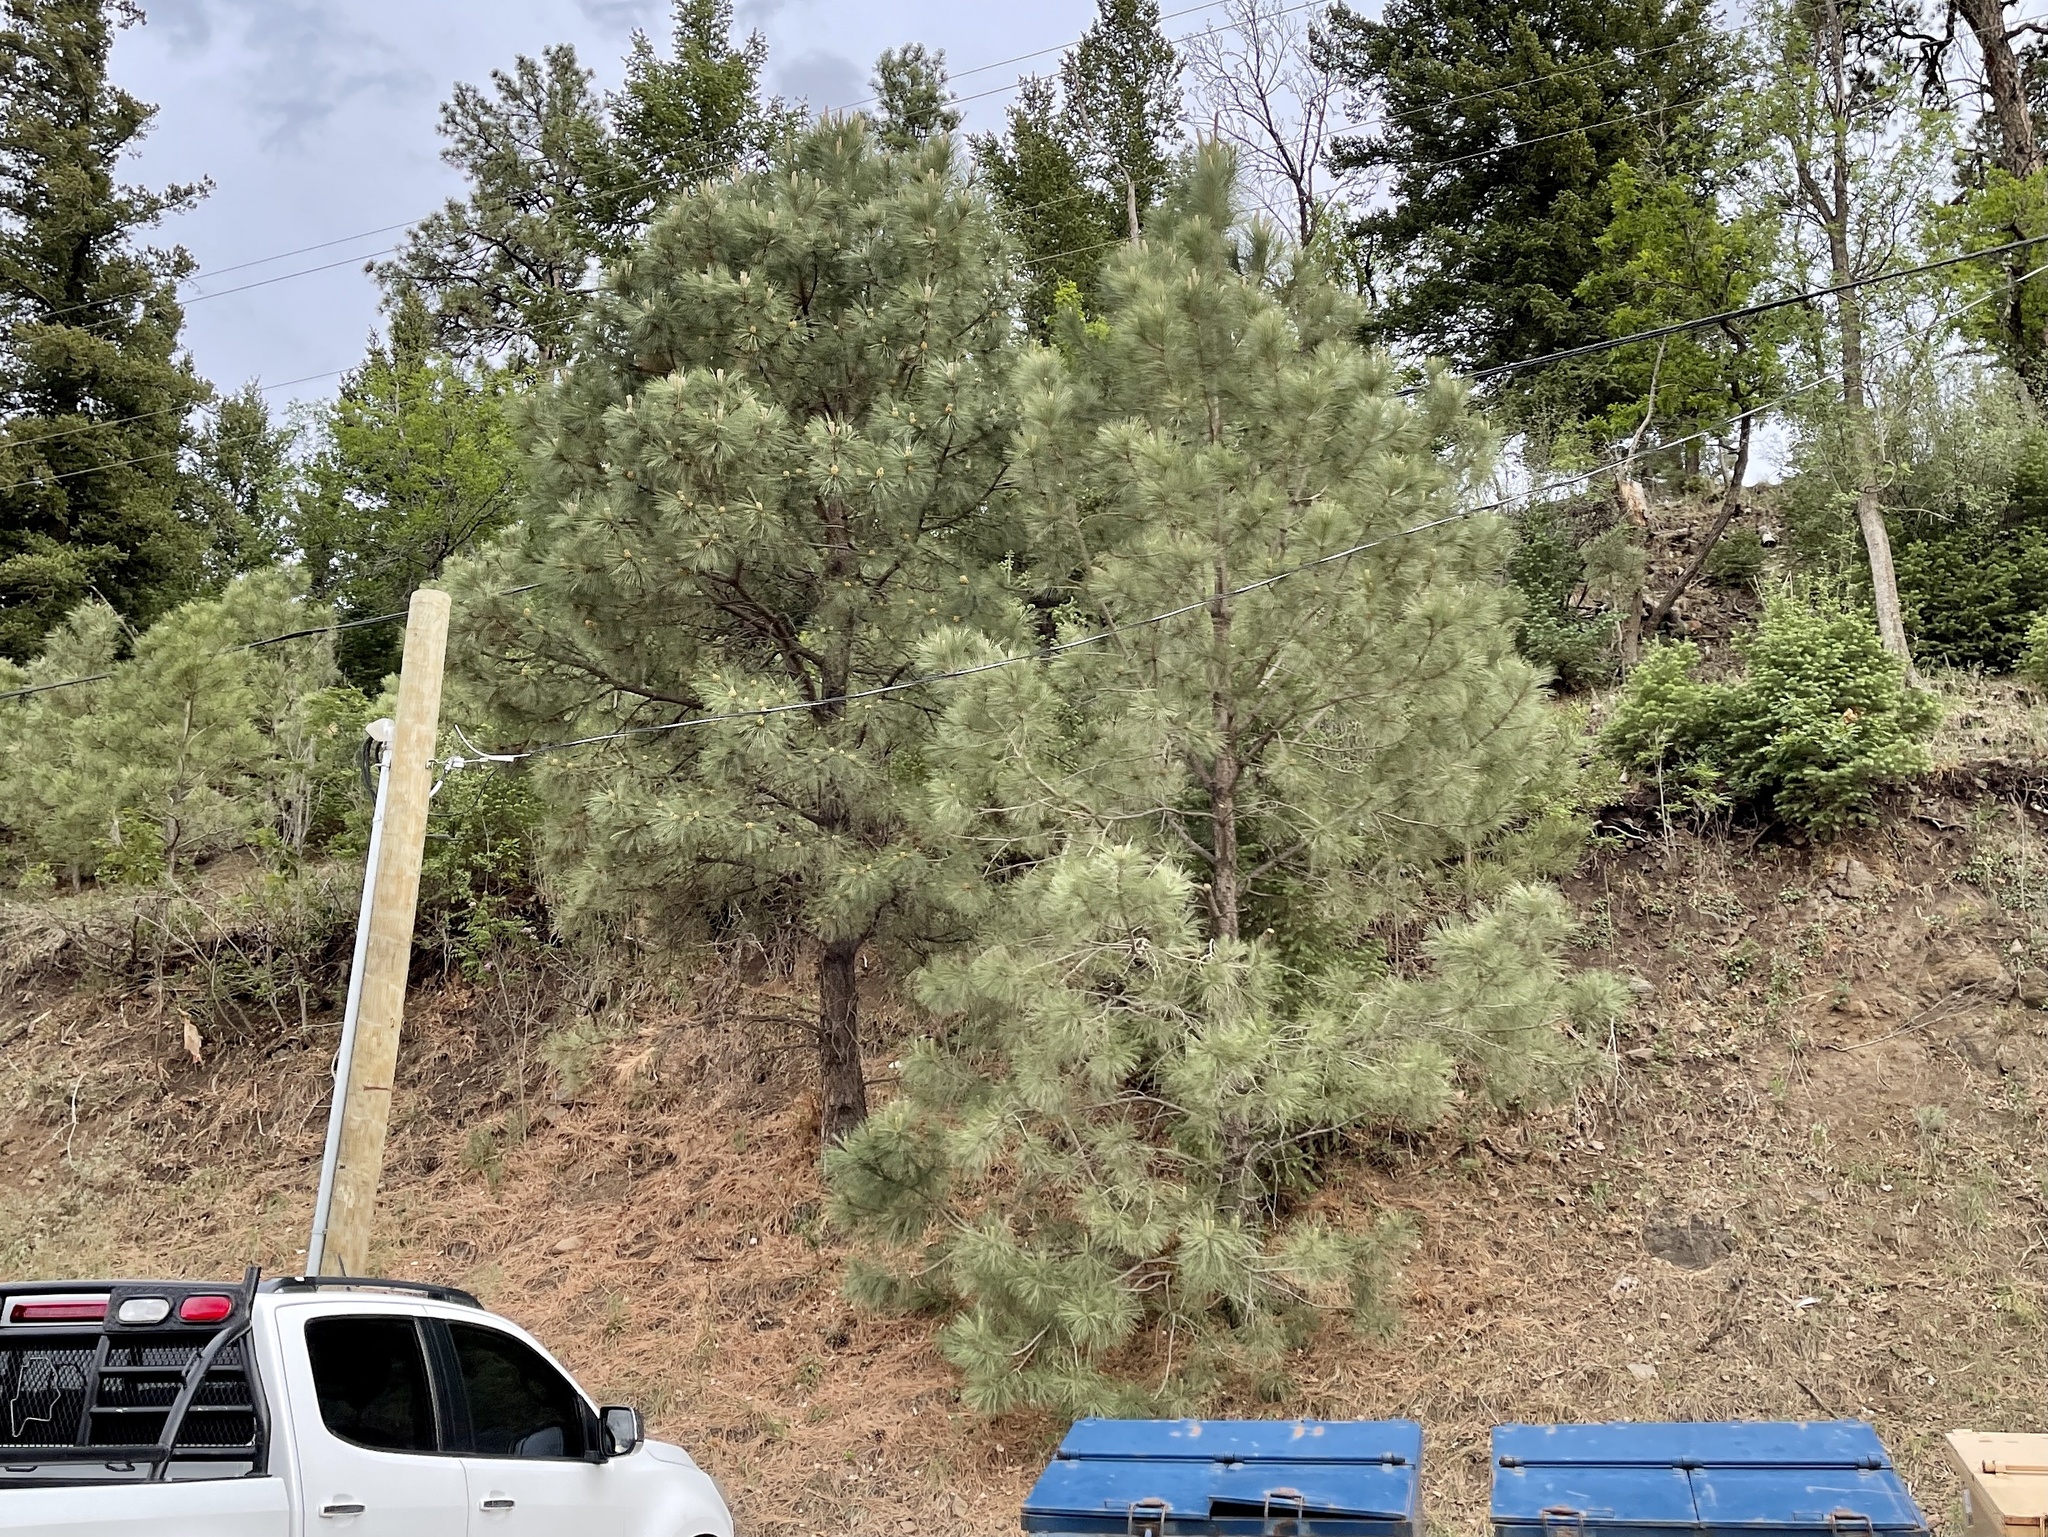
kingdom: Plantae
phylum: Tracheophyta
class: Pinopsida
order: Pinales
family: Pinaceae
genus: Pinus
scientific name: Pinus ponderosa
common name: Western yellow-pine
